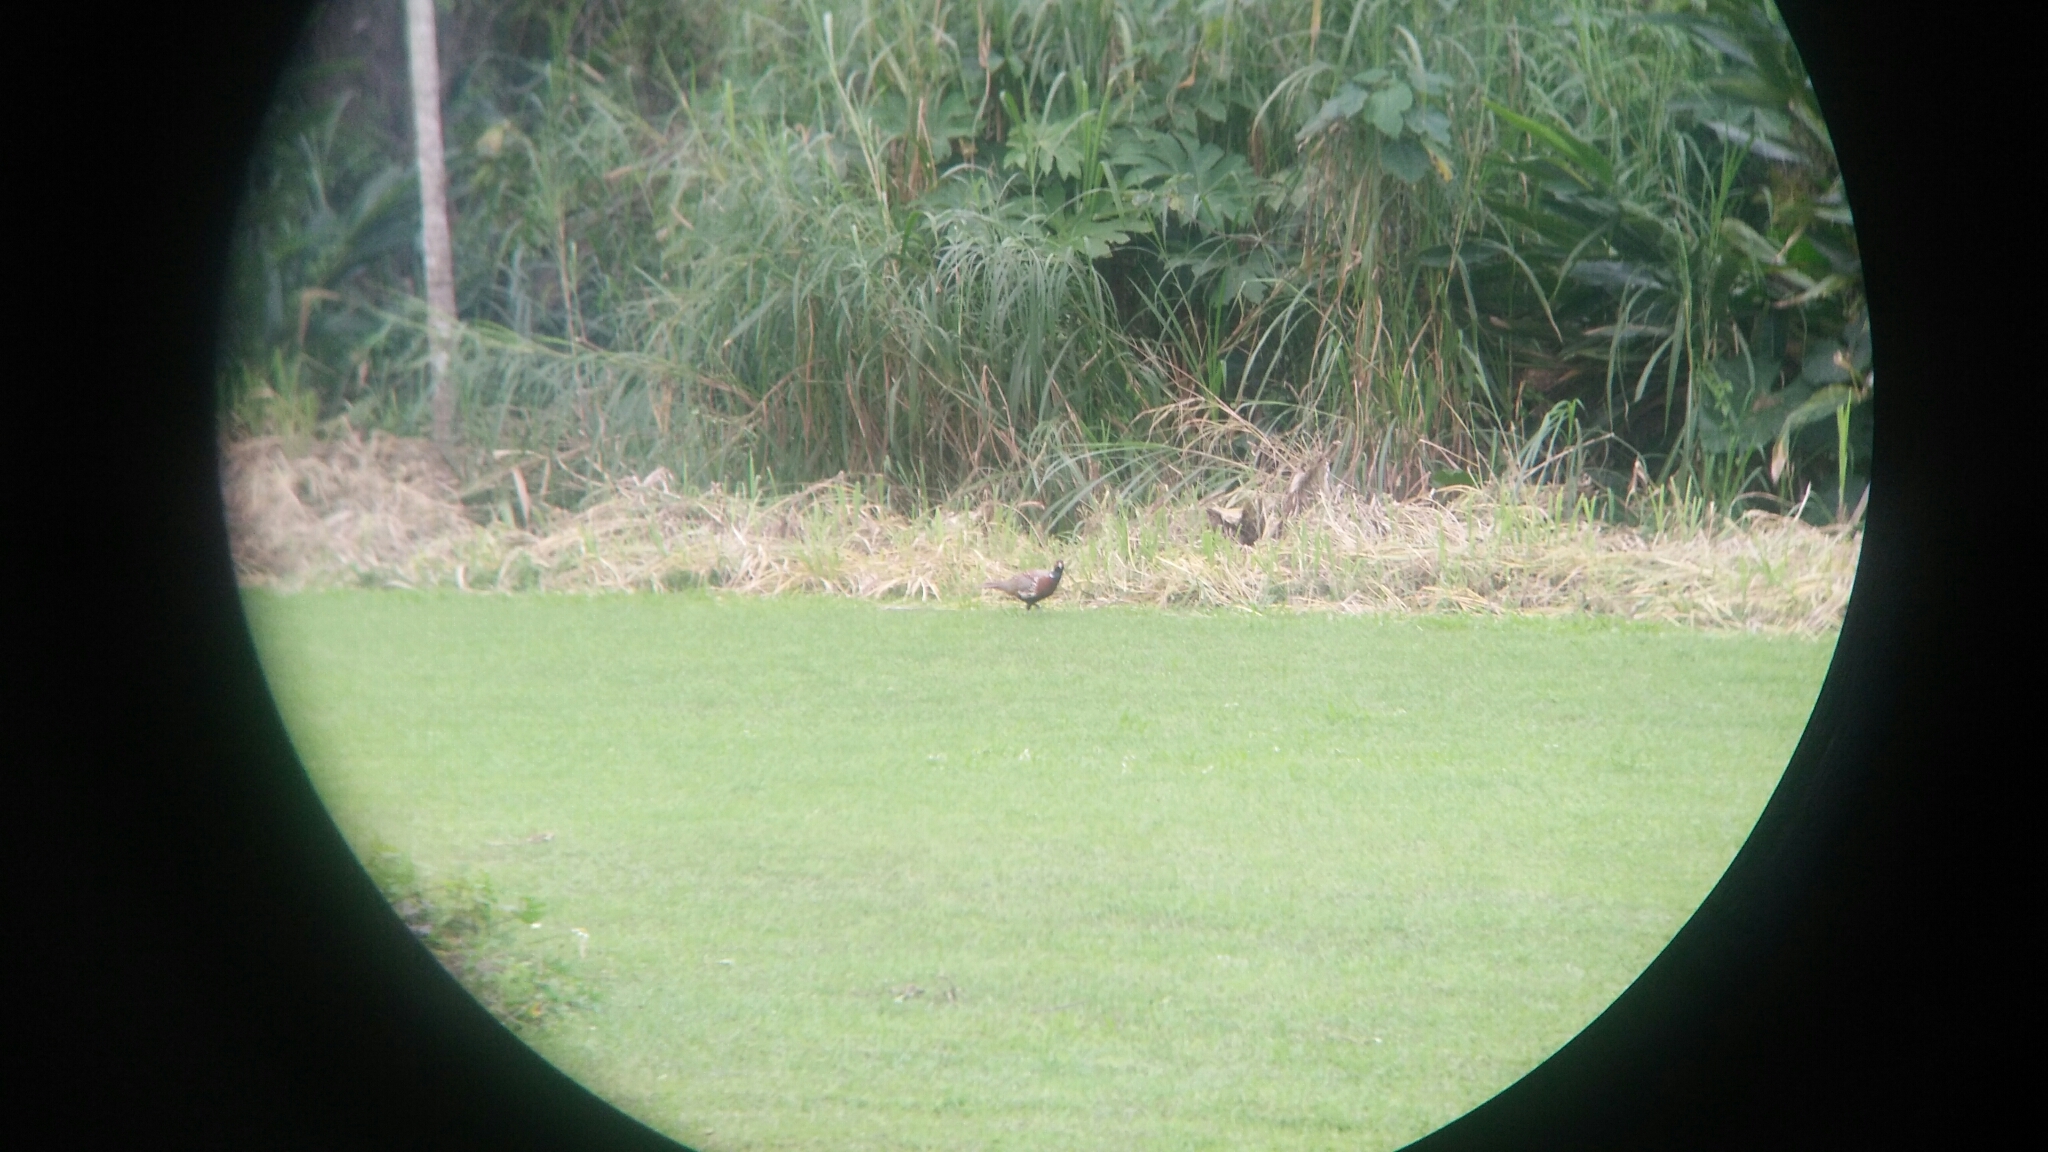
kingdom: Animalia
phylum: Chordata
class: Aves
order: Galliformes
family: Phasianidae
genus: Phasianus
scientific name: Phasianus colchicus
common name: Common pheasant
